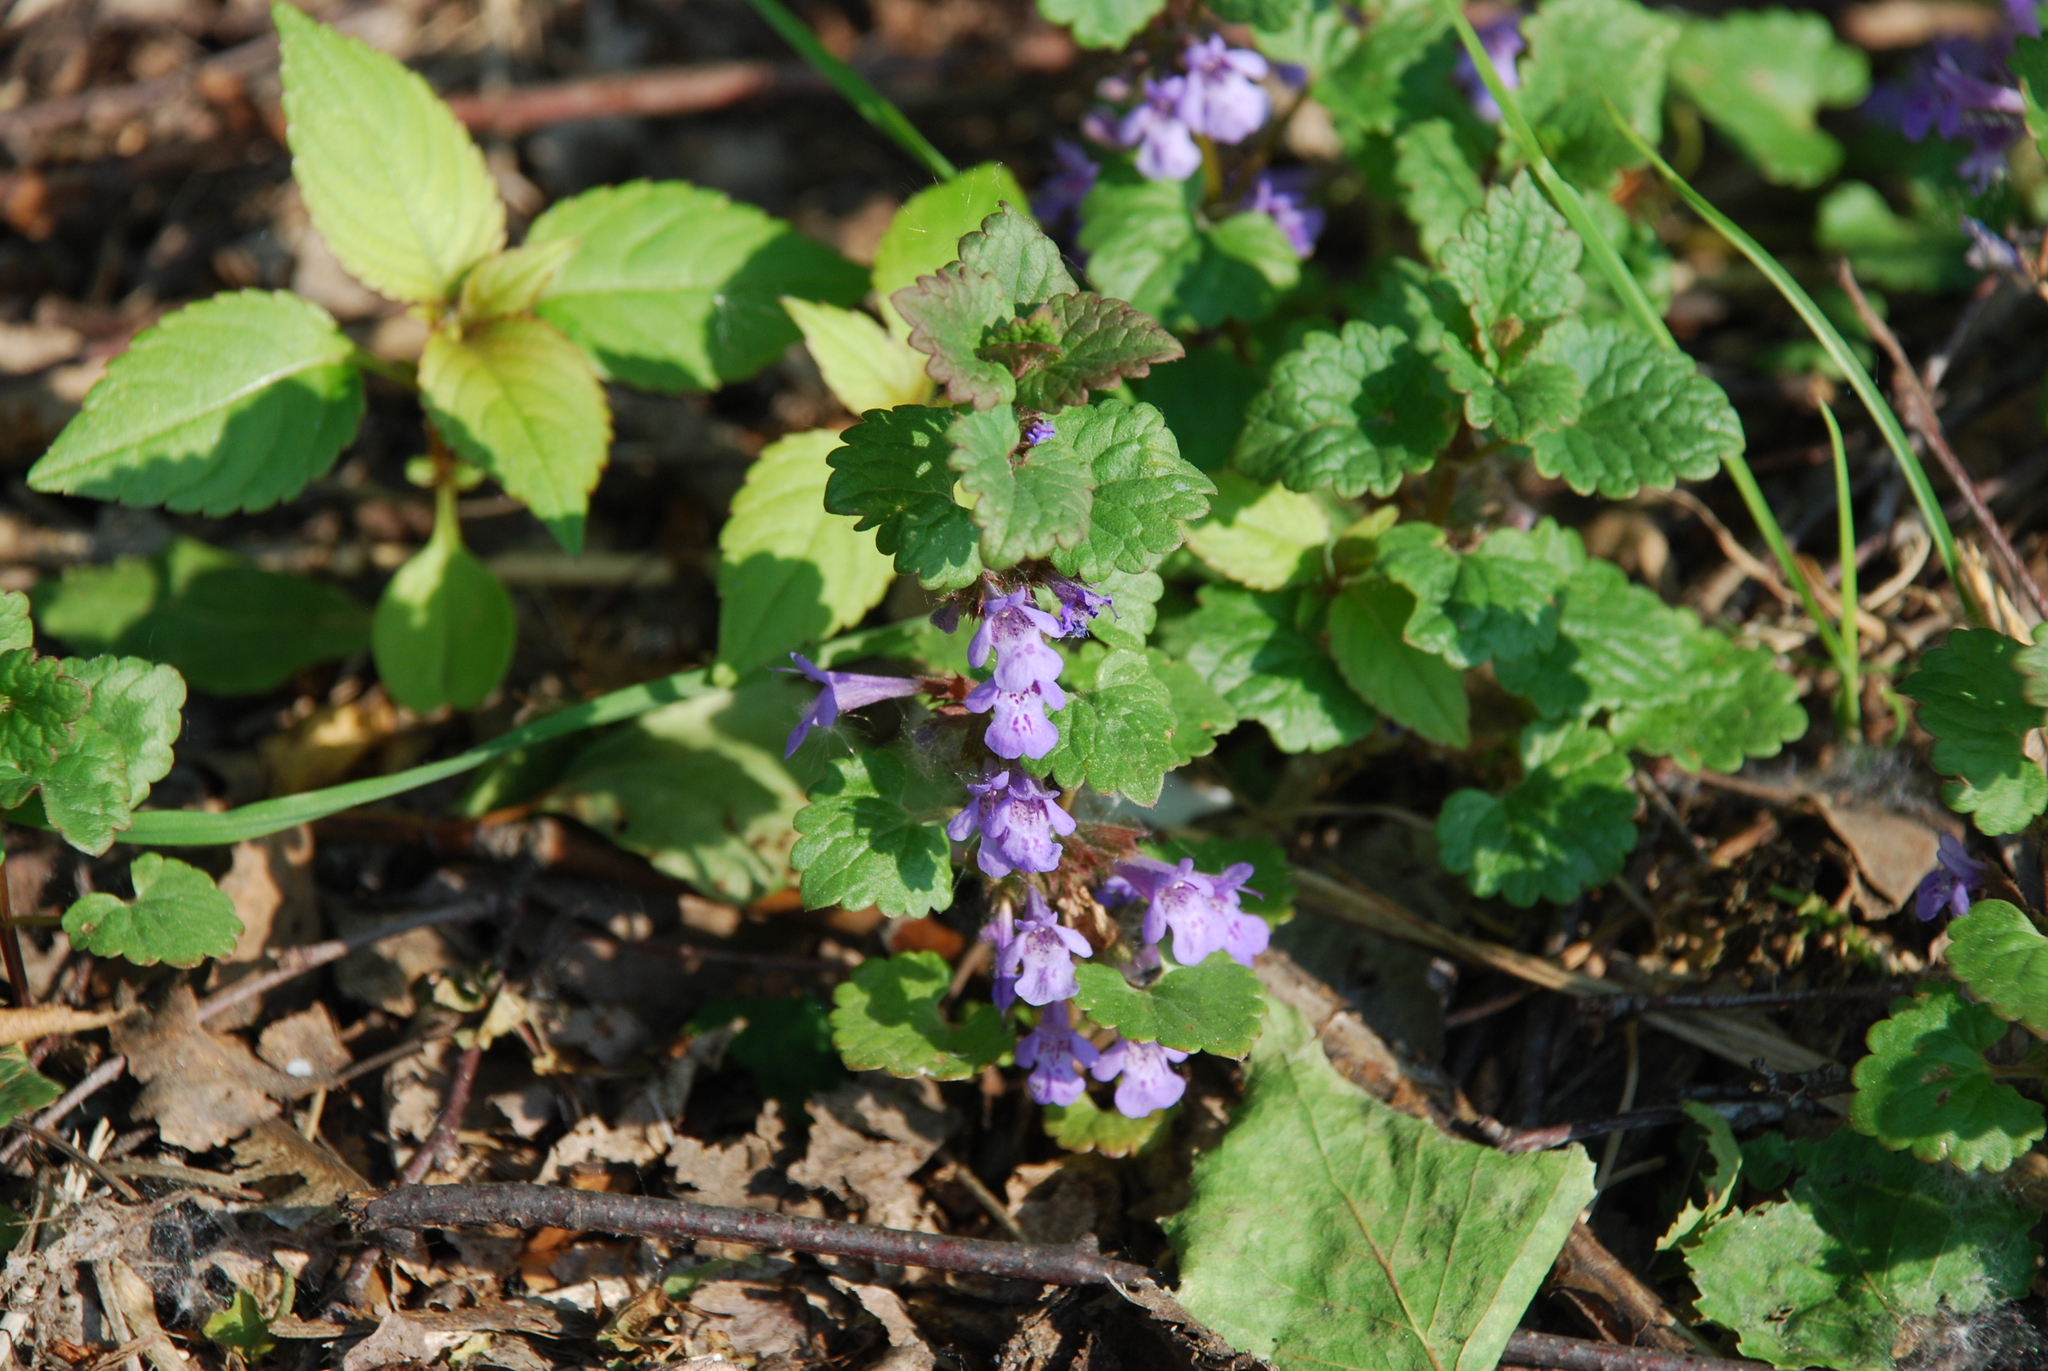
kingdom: Plantae
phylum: Tracheophyta
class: Magnoliopsida
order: Lamiales
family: Lamiaceae
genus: Glechoma
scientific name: Glechoma hederacea
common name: Ground ivy
